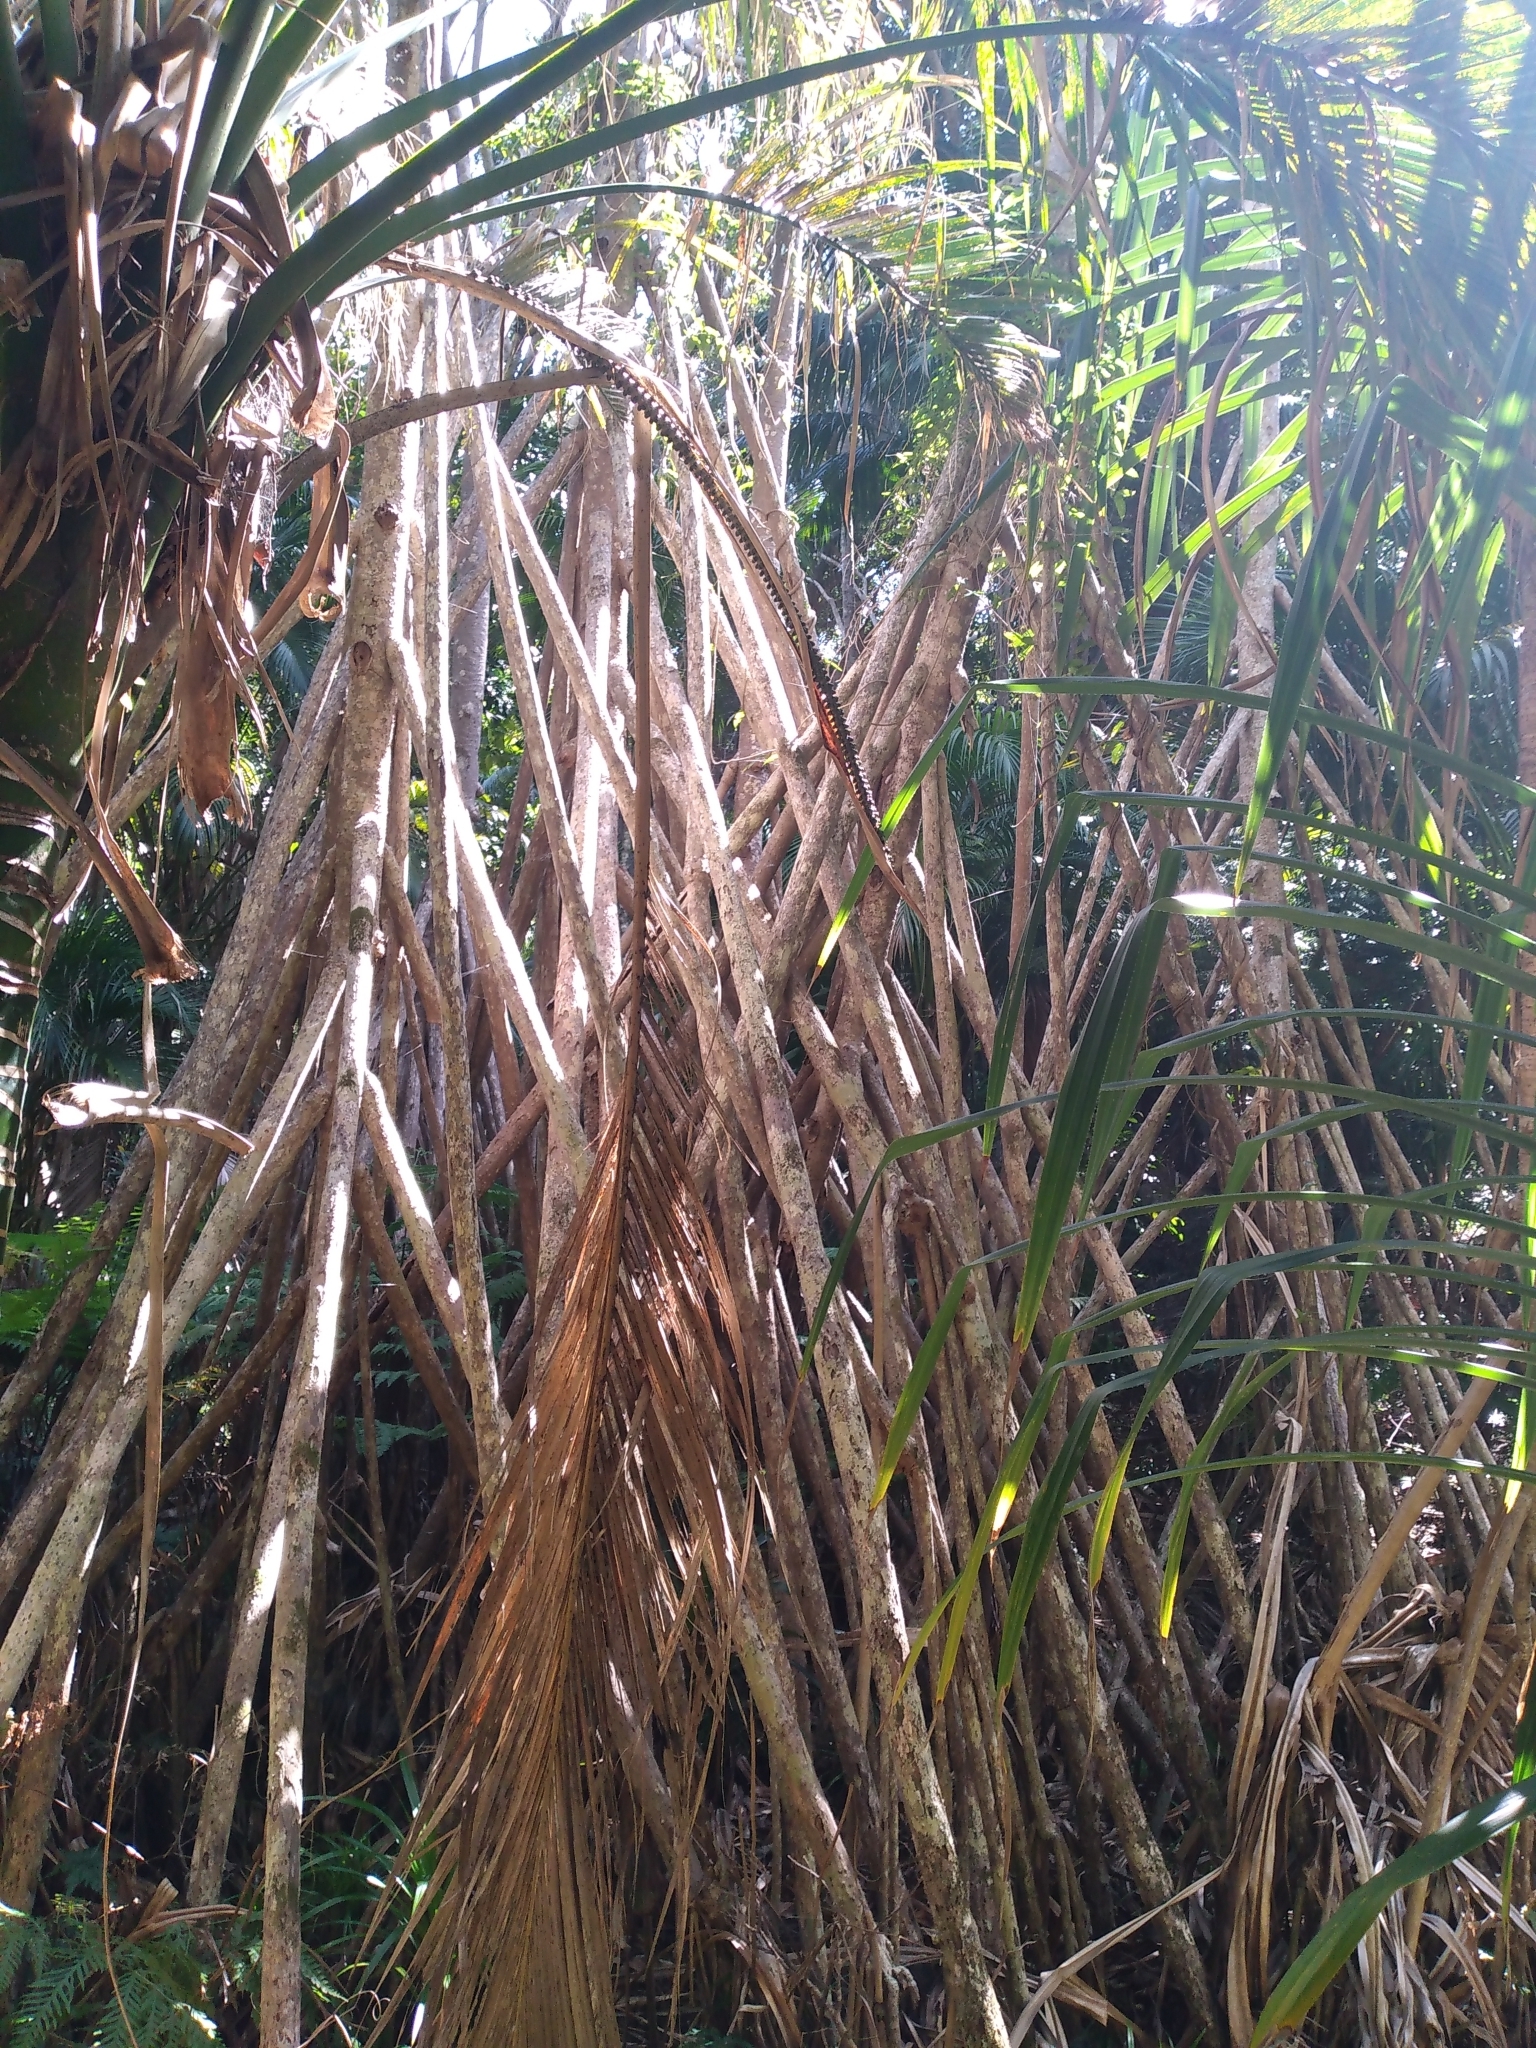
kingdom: Plantae
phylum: Tracheophyta
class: Liliopsida
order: Pandanales
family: Pandanaceae
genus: Pandanus
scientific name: Pandanus forsteri
